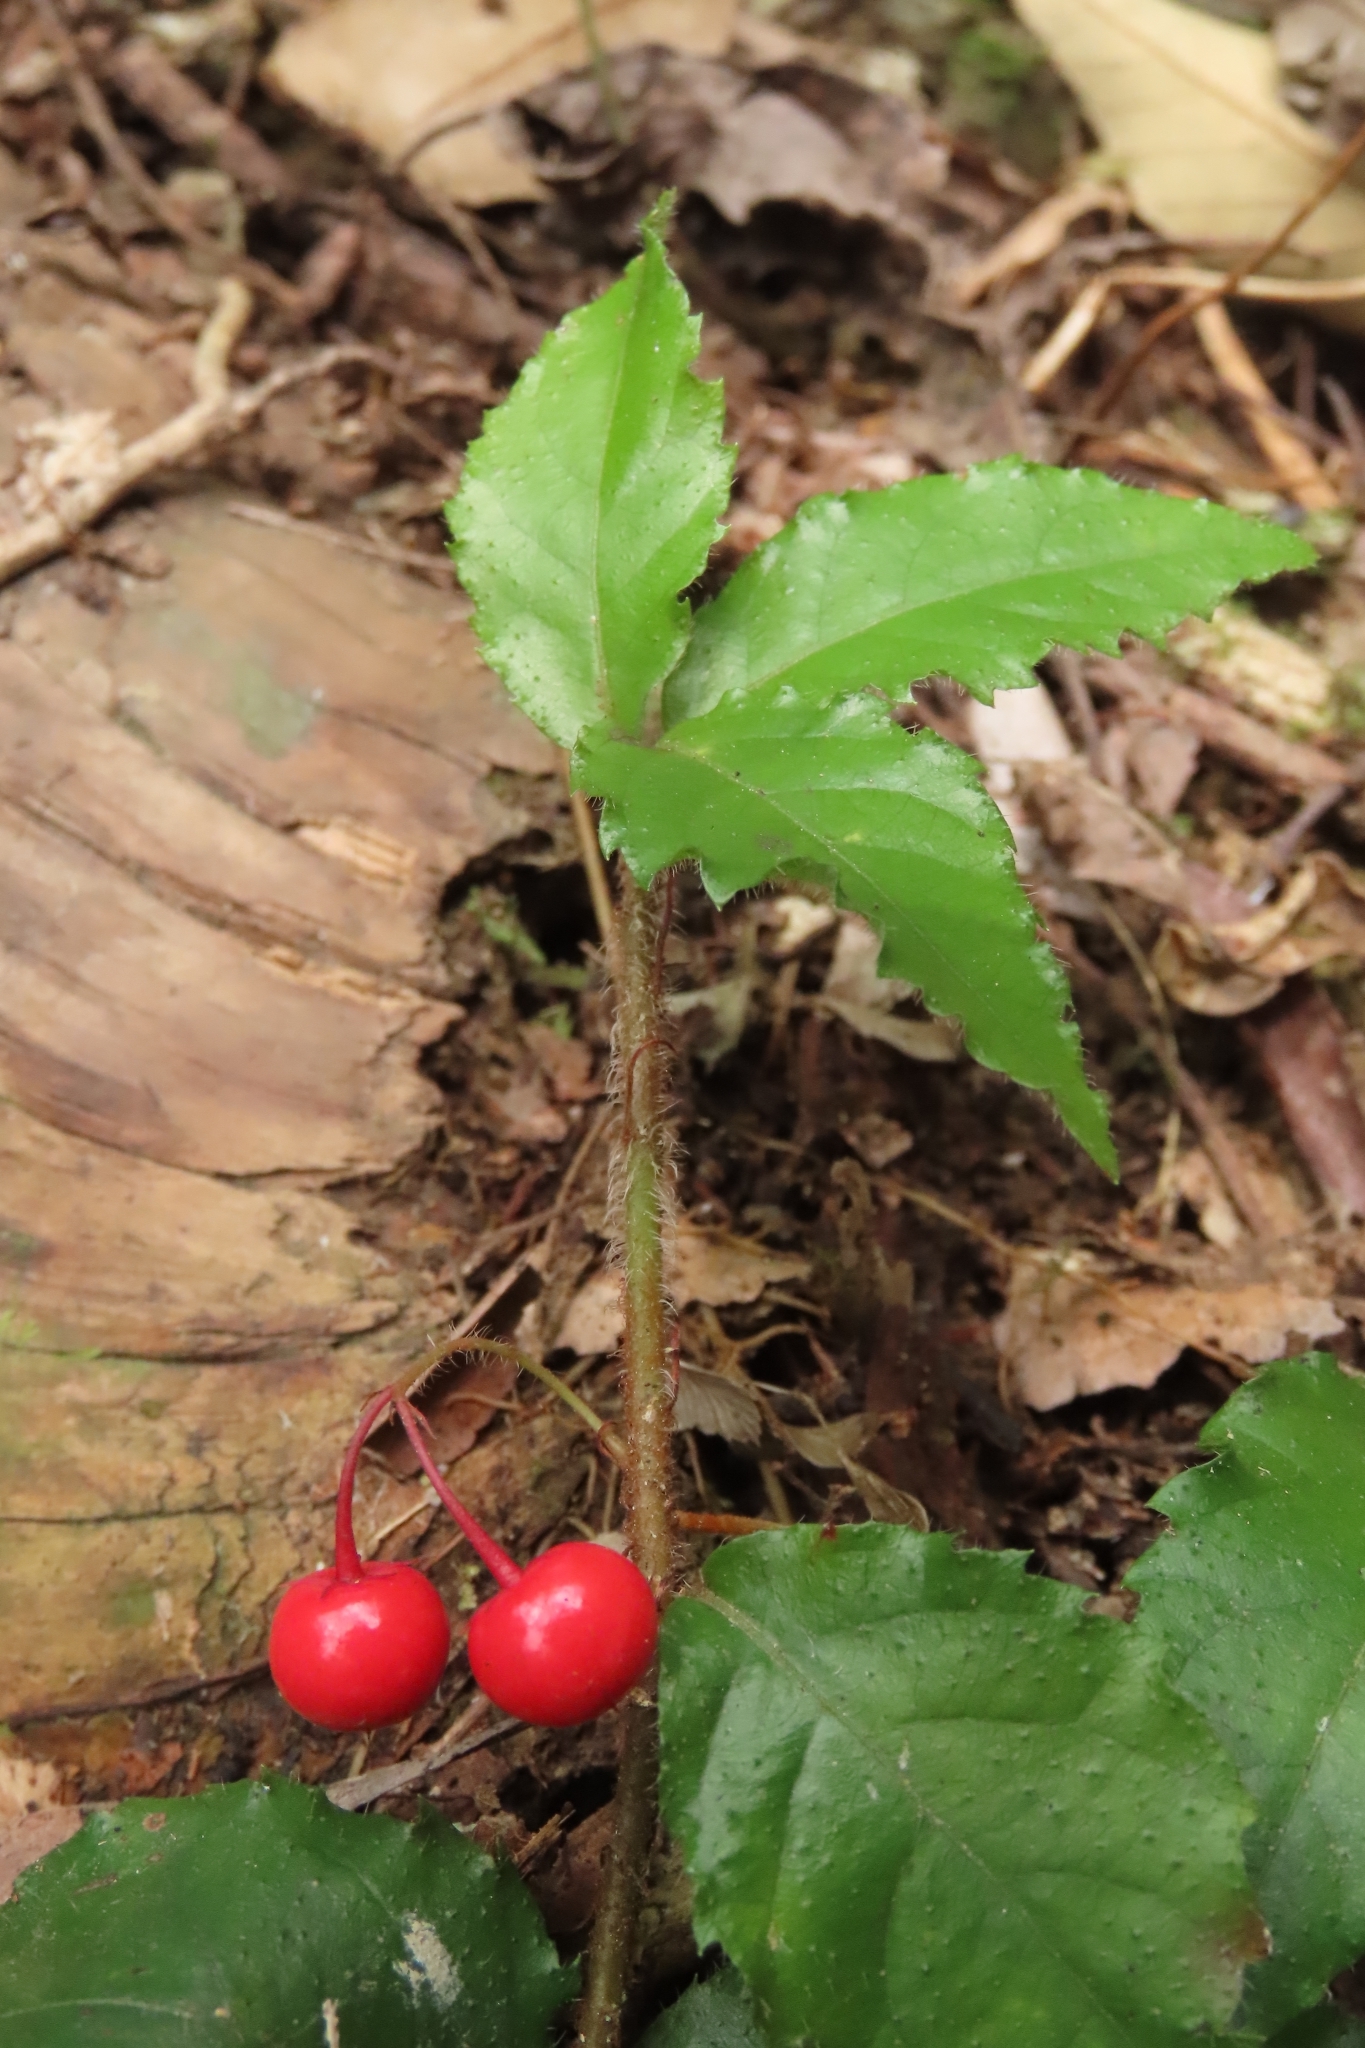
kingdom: Plantae
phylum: Tracheophyta
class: Magnoliopsida
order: Ericales
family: Primulaceae
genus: Ardisia
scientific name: Ardisia pusilla
